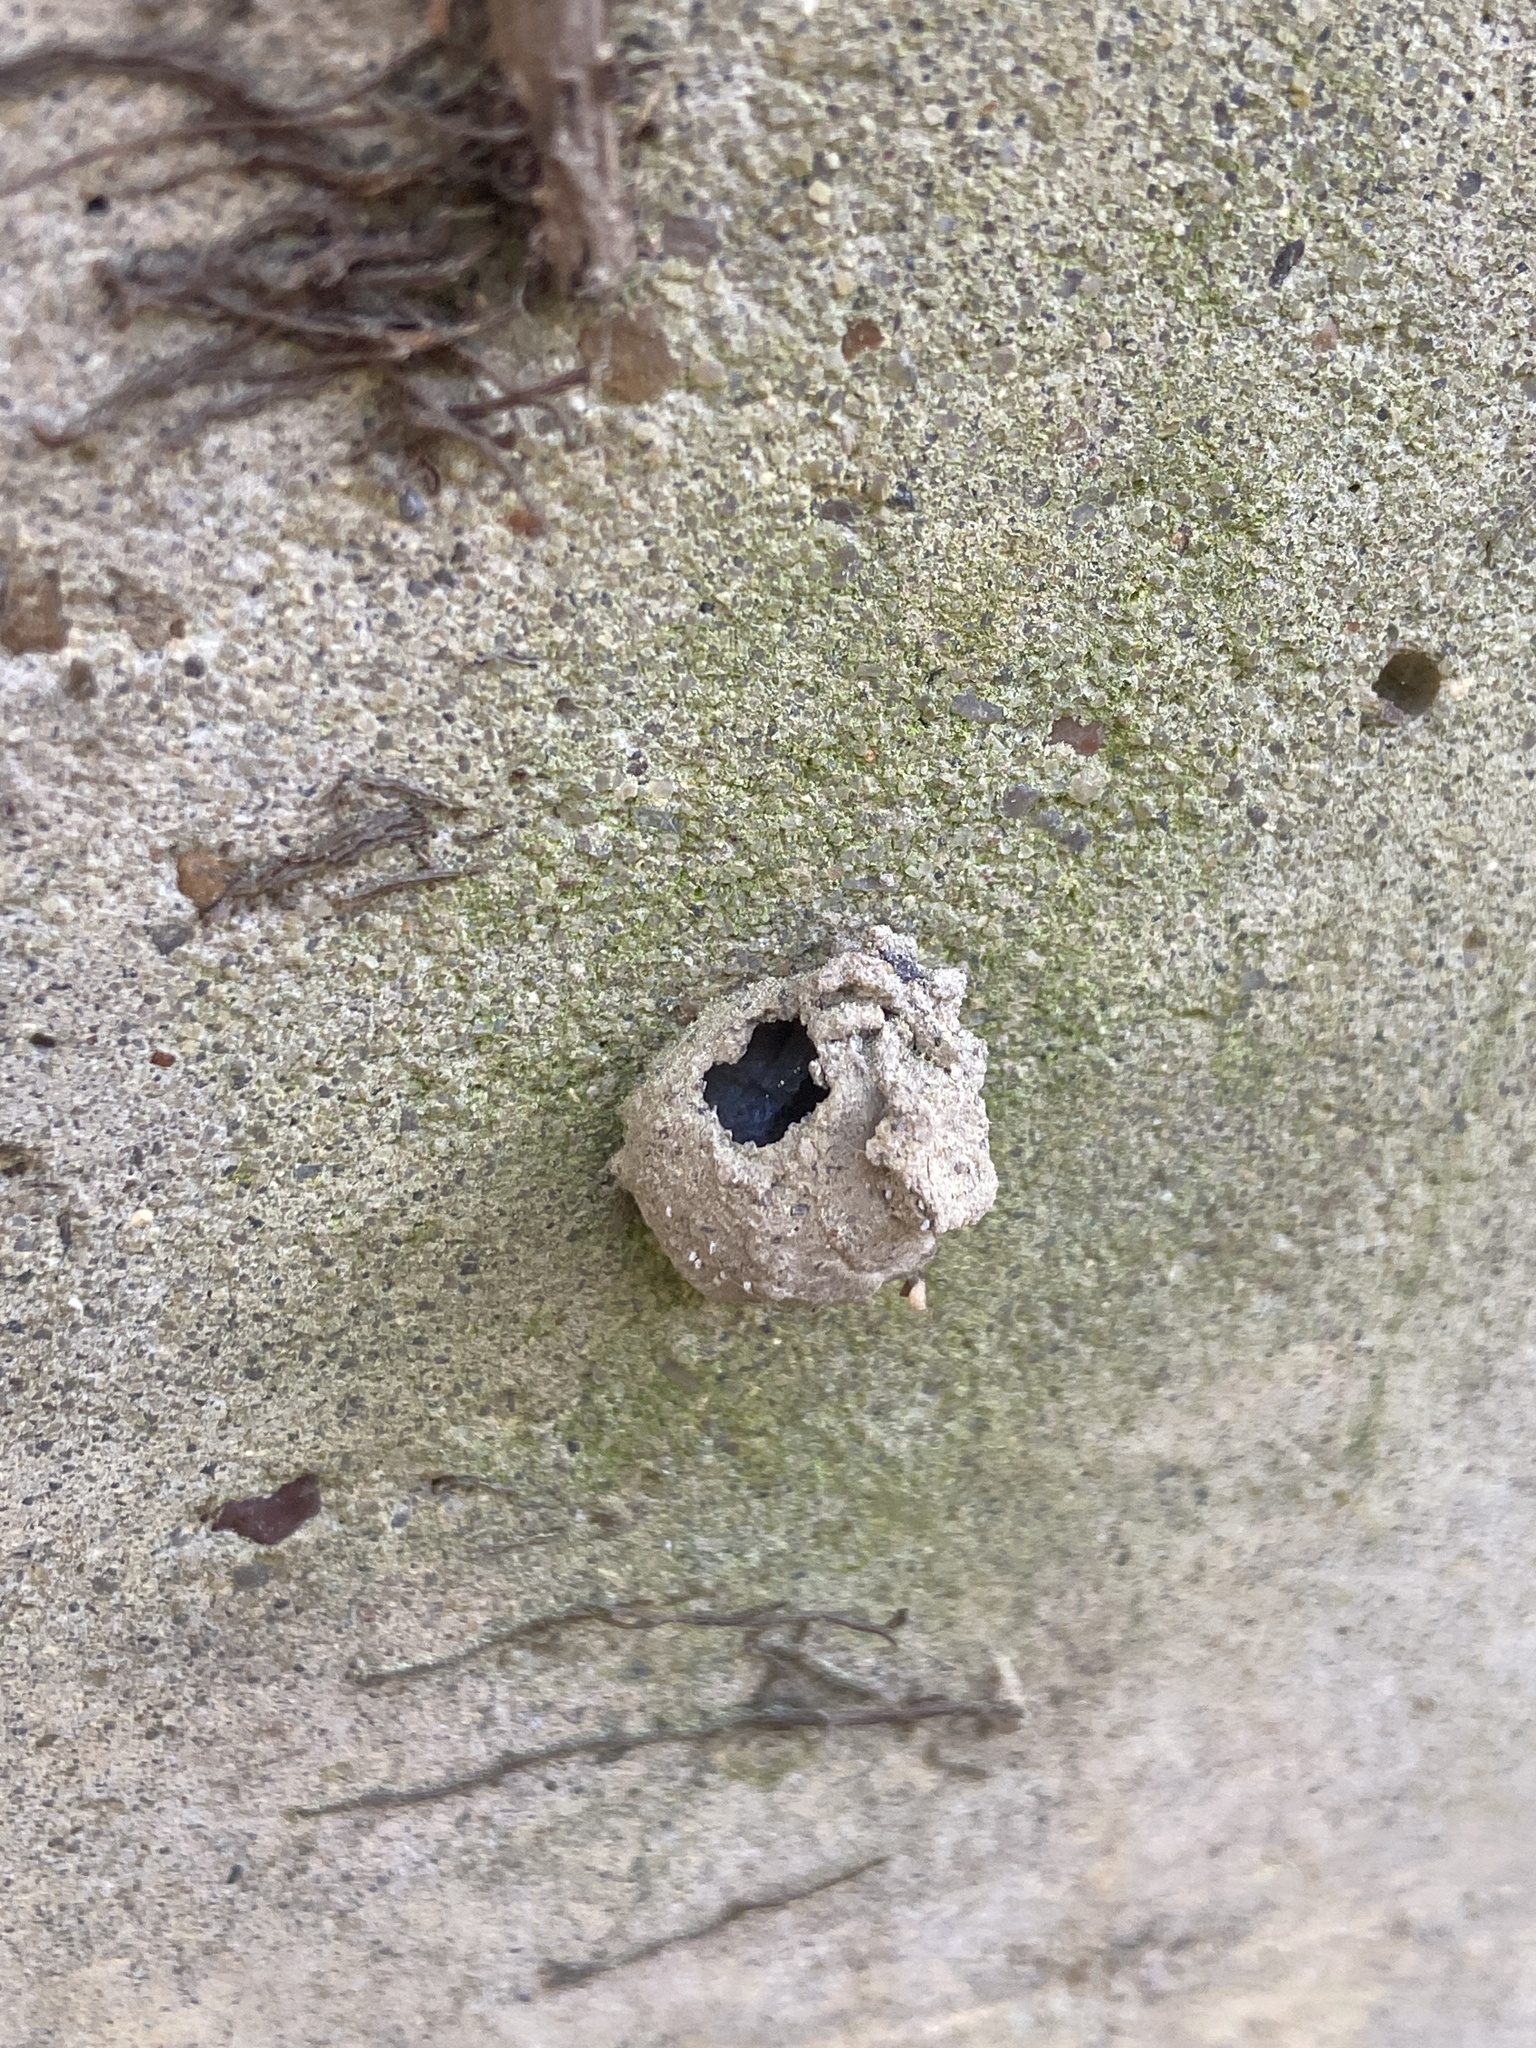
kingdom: Animalia
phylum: Arthropoda
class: Insecta
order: Hymenoptera
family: Vespidae
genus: Eumenes
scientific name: Eumenes fraternus
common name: Fraternal potter wasp
